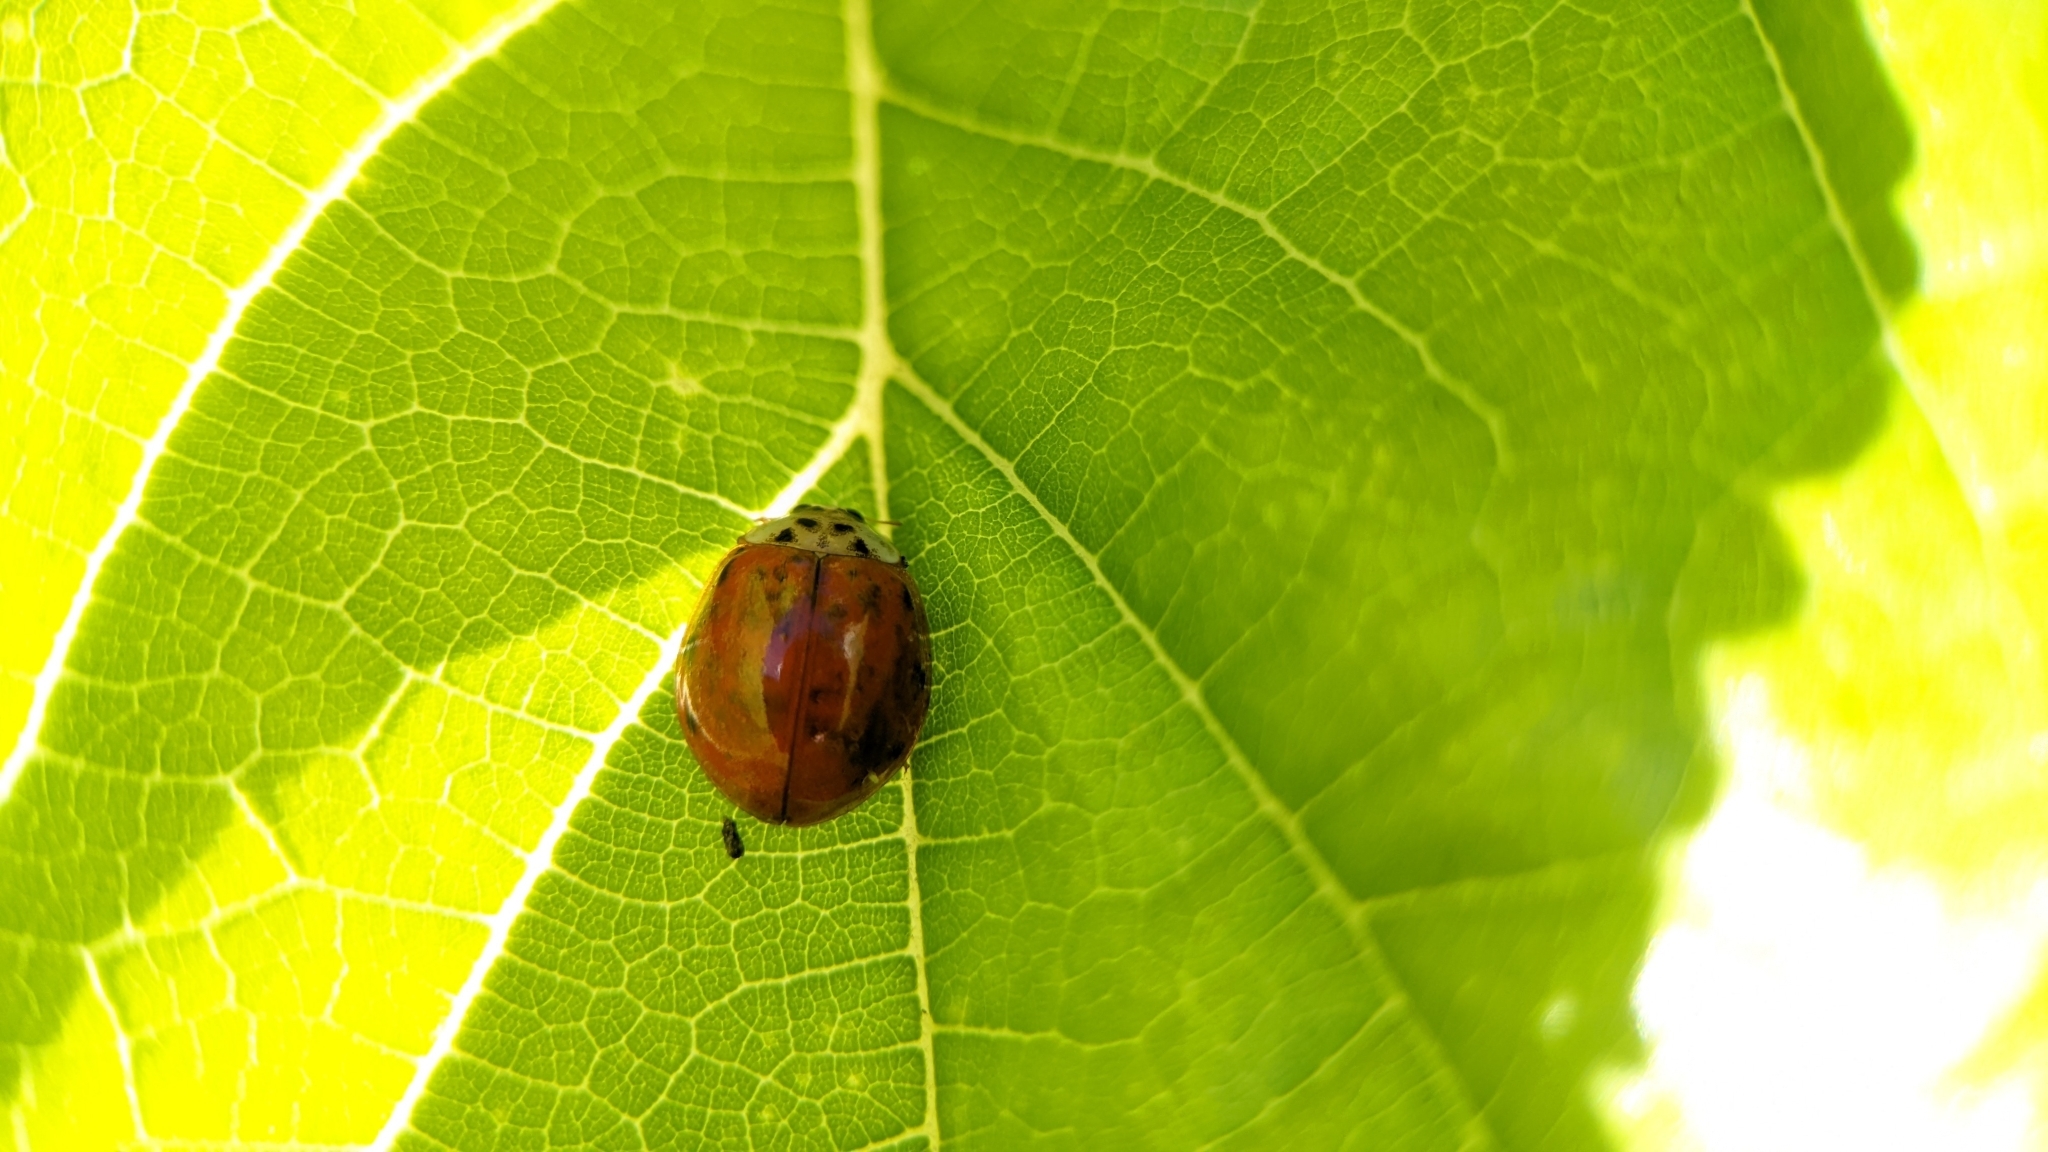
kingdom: Animalia
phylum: Arthropoda
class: Insecta
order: Coleoptera
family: Coccinellidae
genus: Harmonia
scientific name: Harmonia axyridis
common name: Harlequin ladybird
